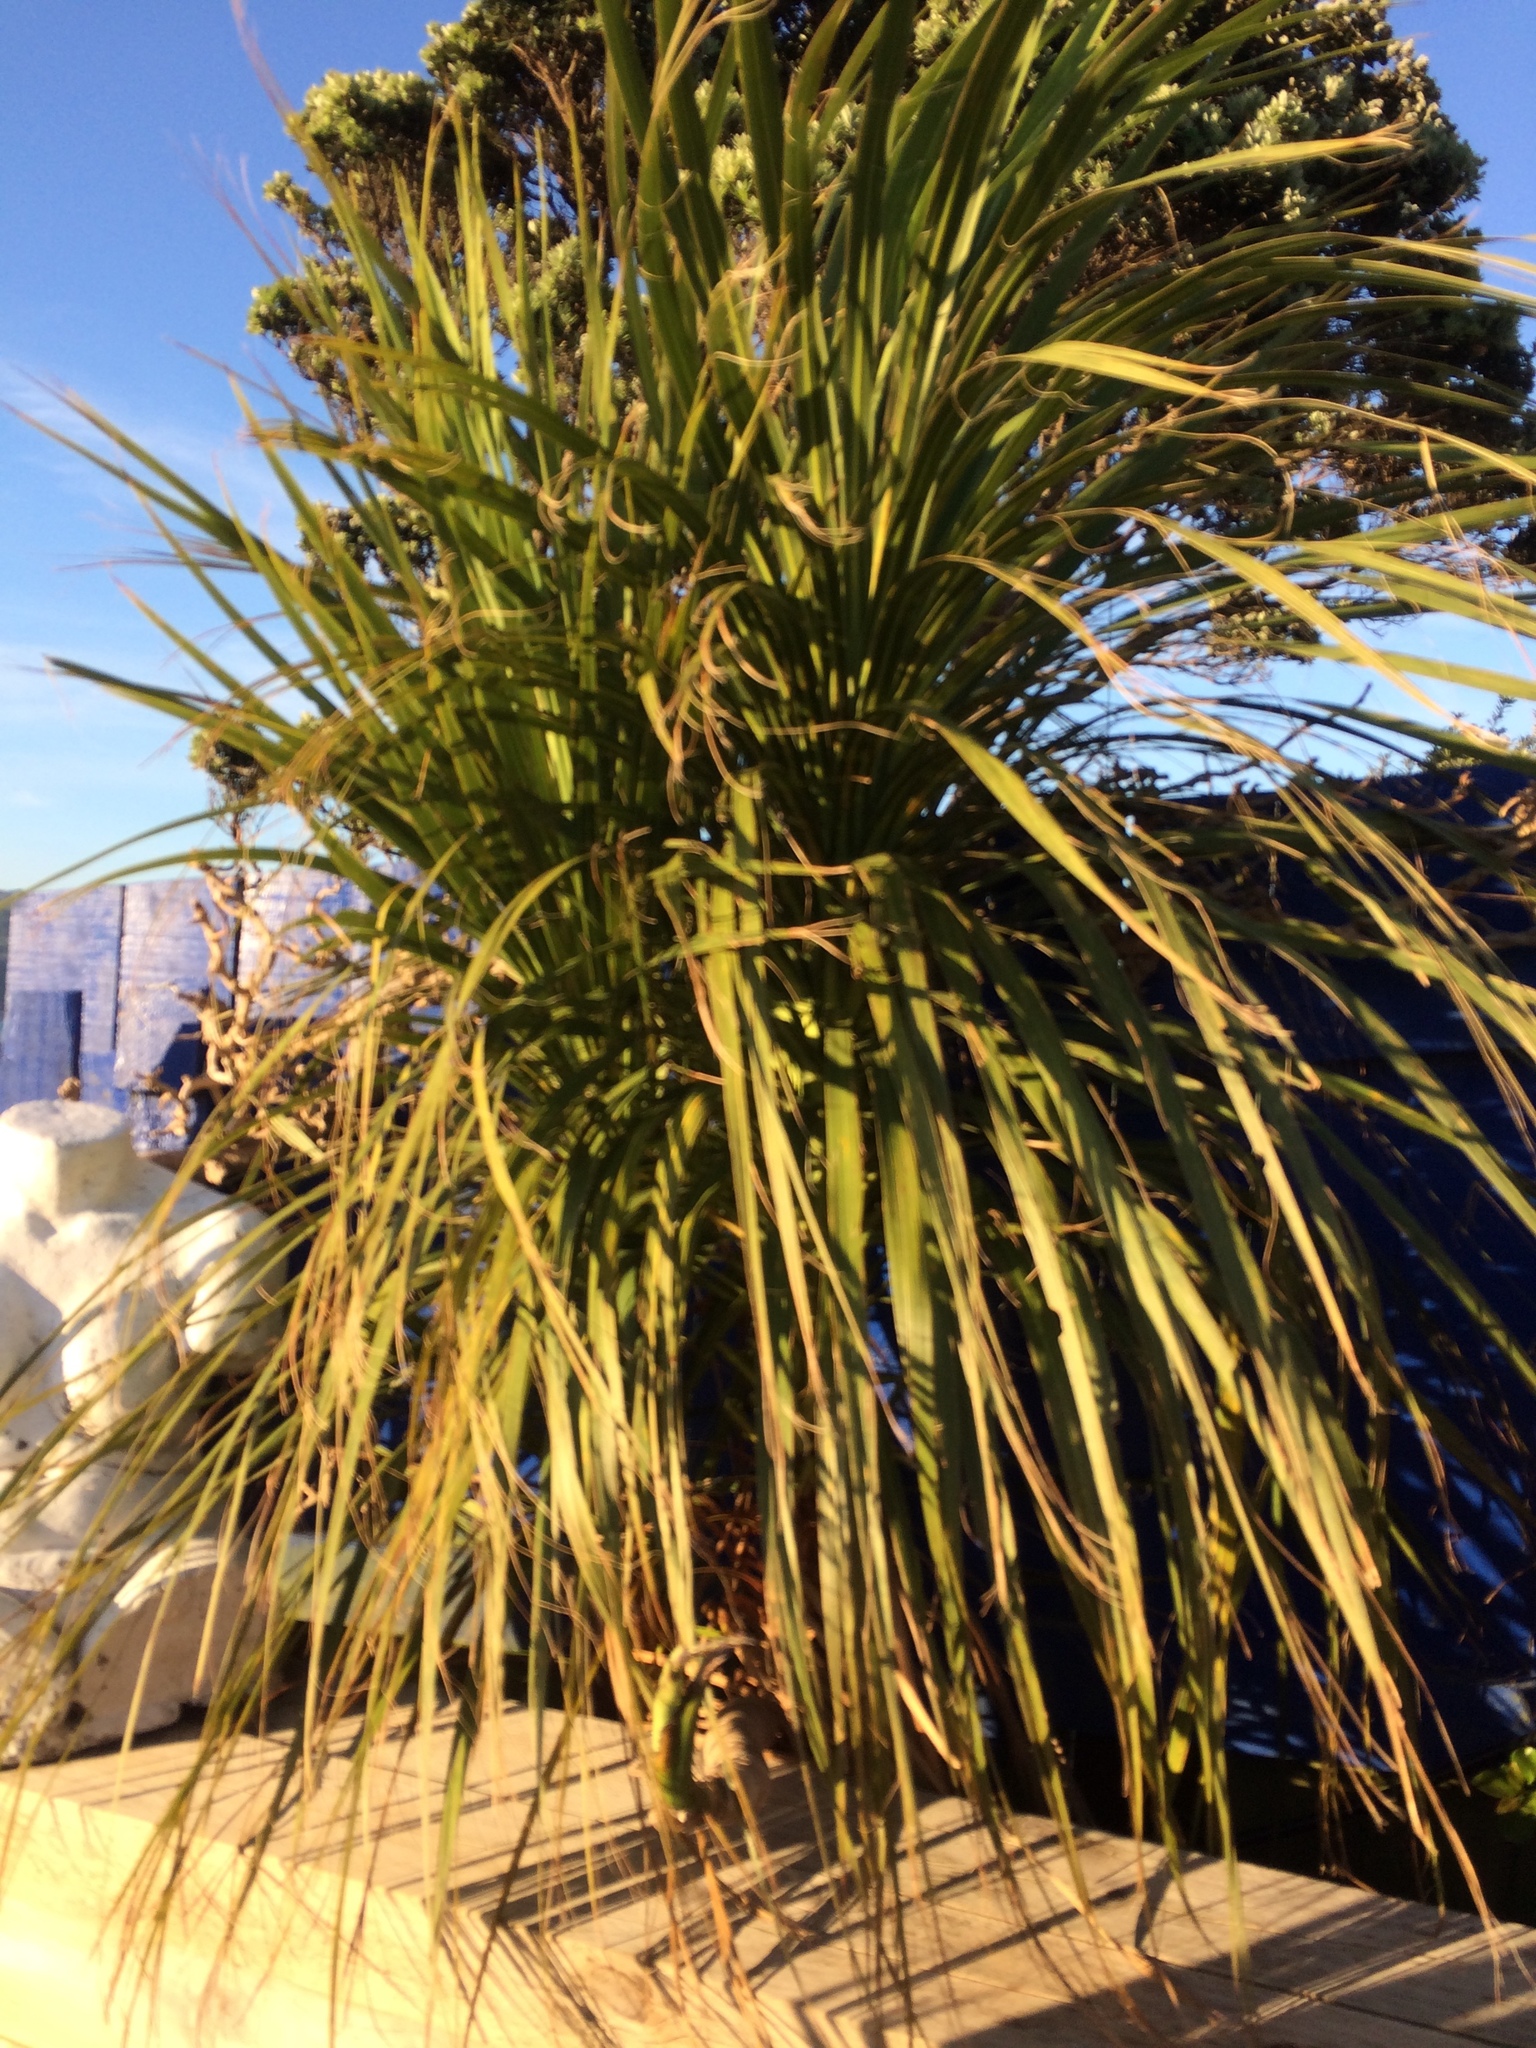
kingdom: Plantae
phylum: Tracheophyta
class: Liliopsida
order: Asparagales
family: Asparagaceae
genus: Cordyline
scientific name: Cordyline australis
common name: Cabbage-palm
